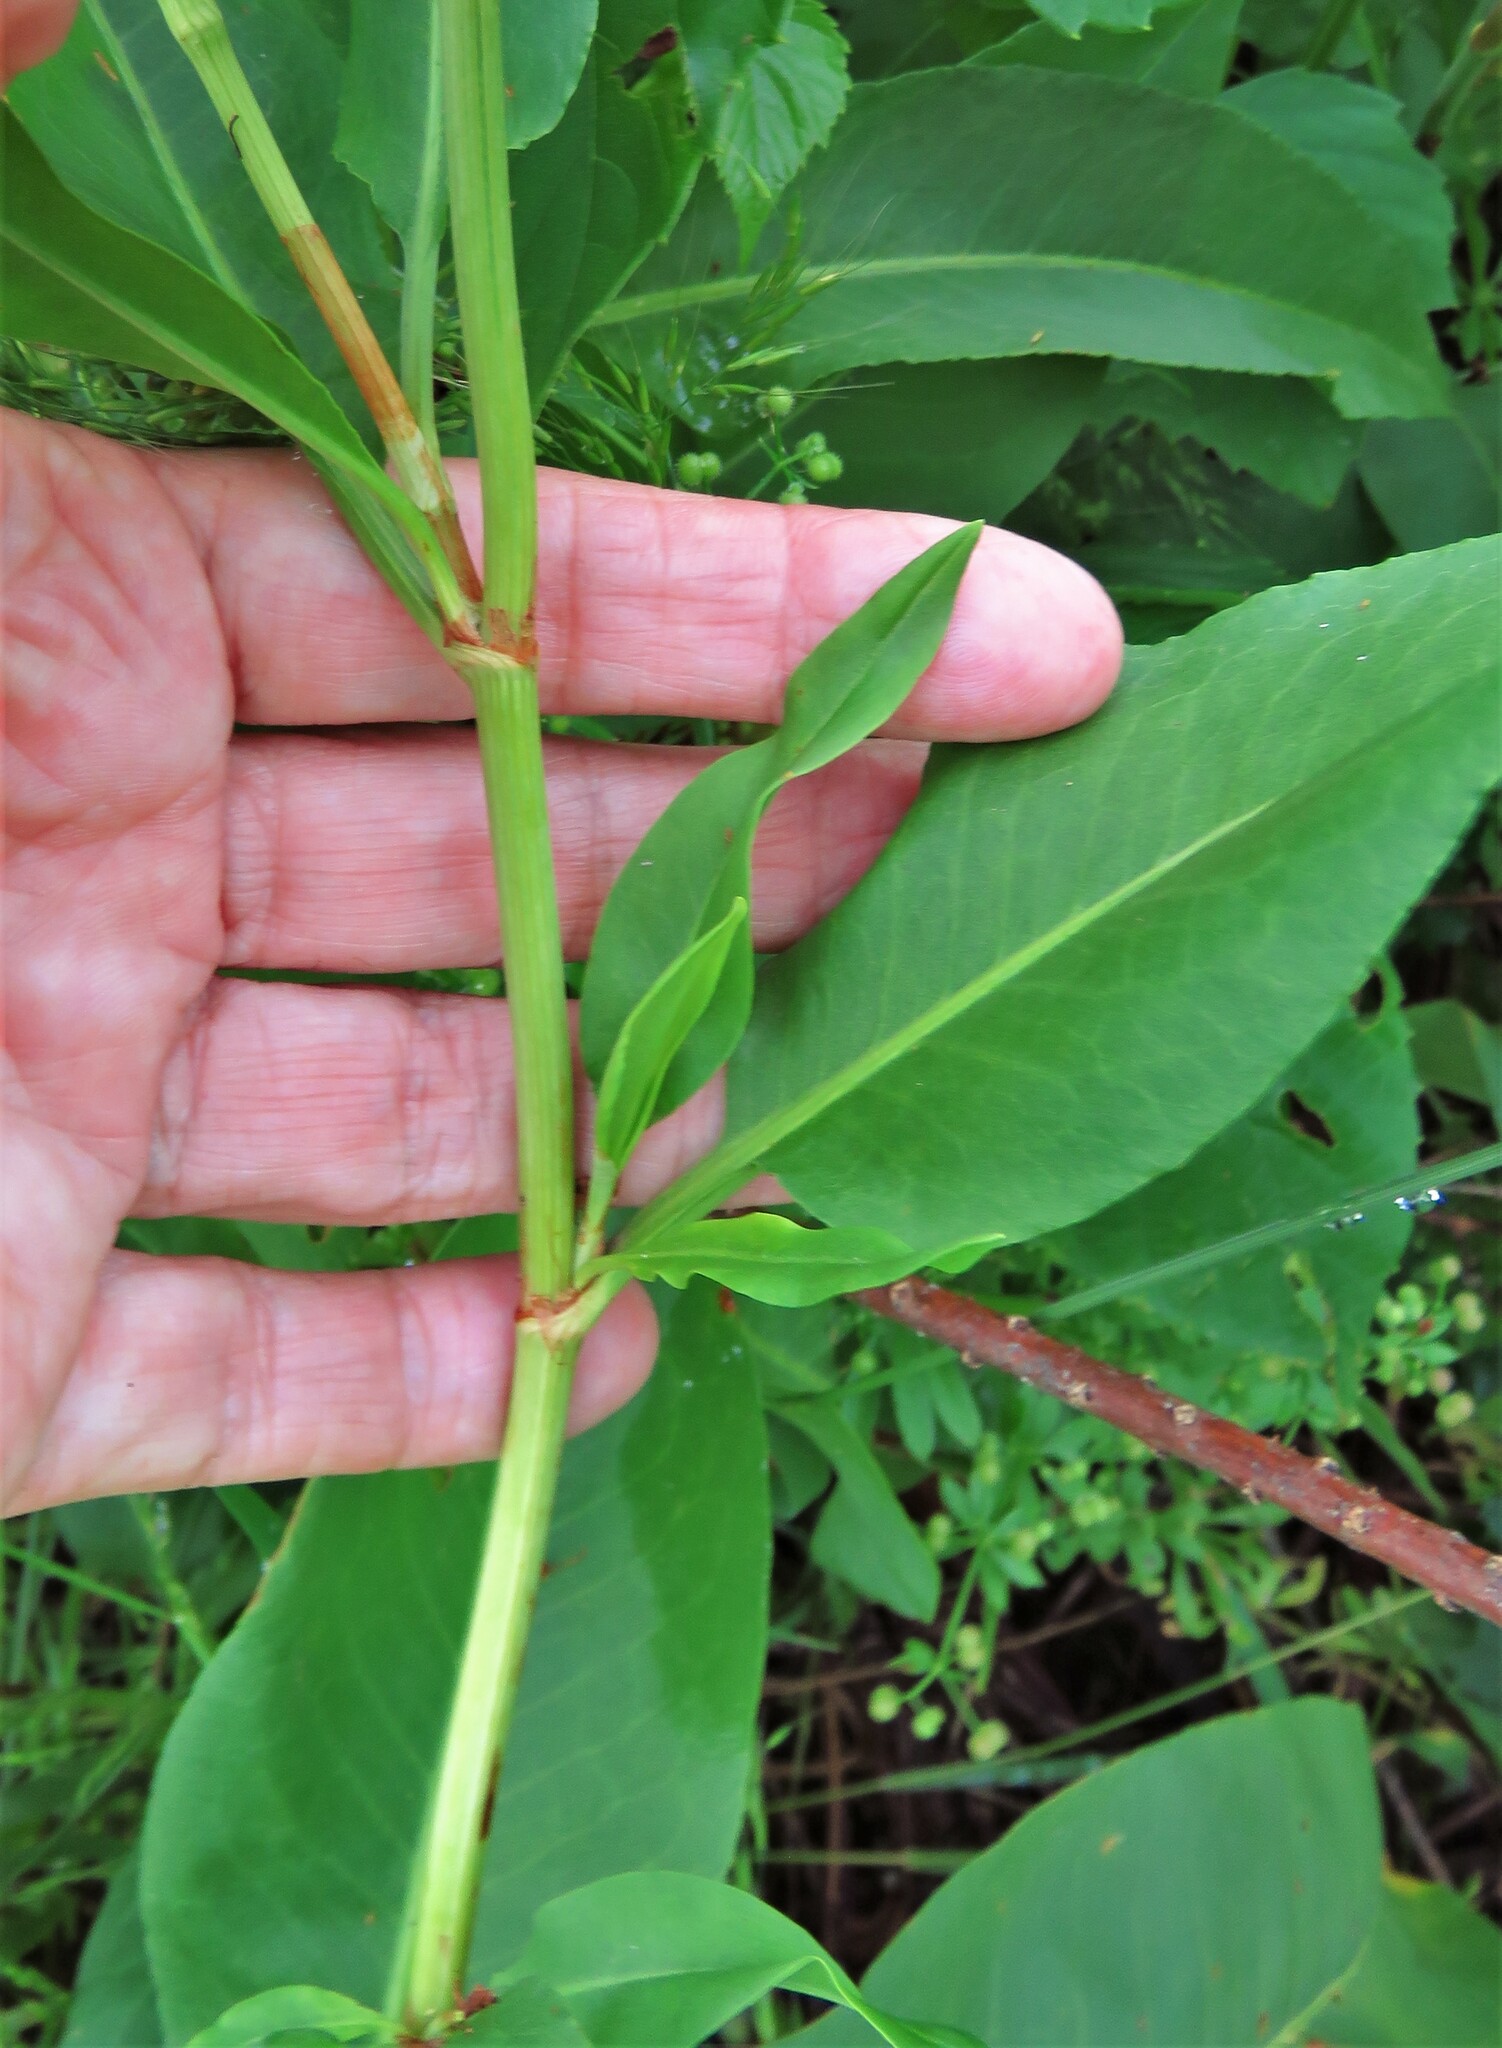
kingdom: Plantae
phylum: Tracheophyta
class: Magnoliopsida
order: Caryophyllales
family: Polygonaceae
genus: Rumex
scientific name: Rumex altissimus
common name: Smooth dock
